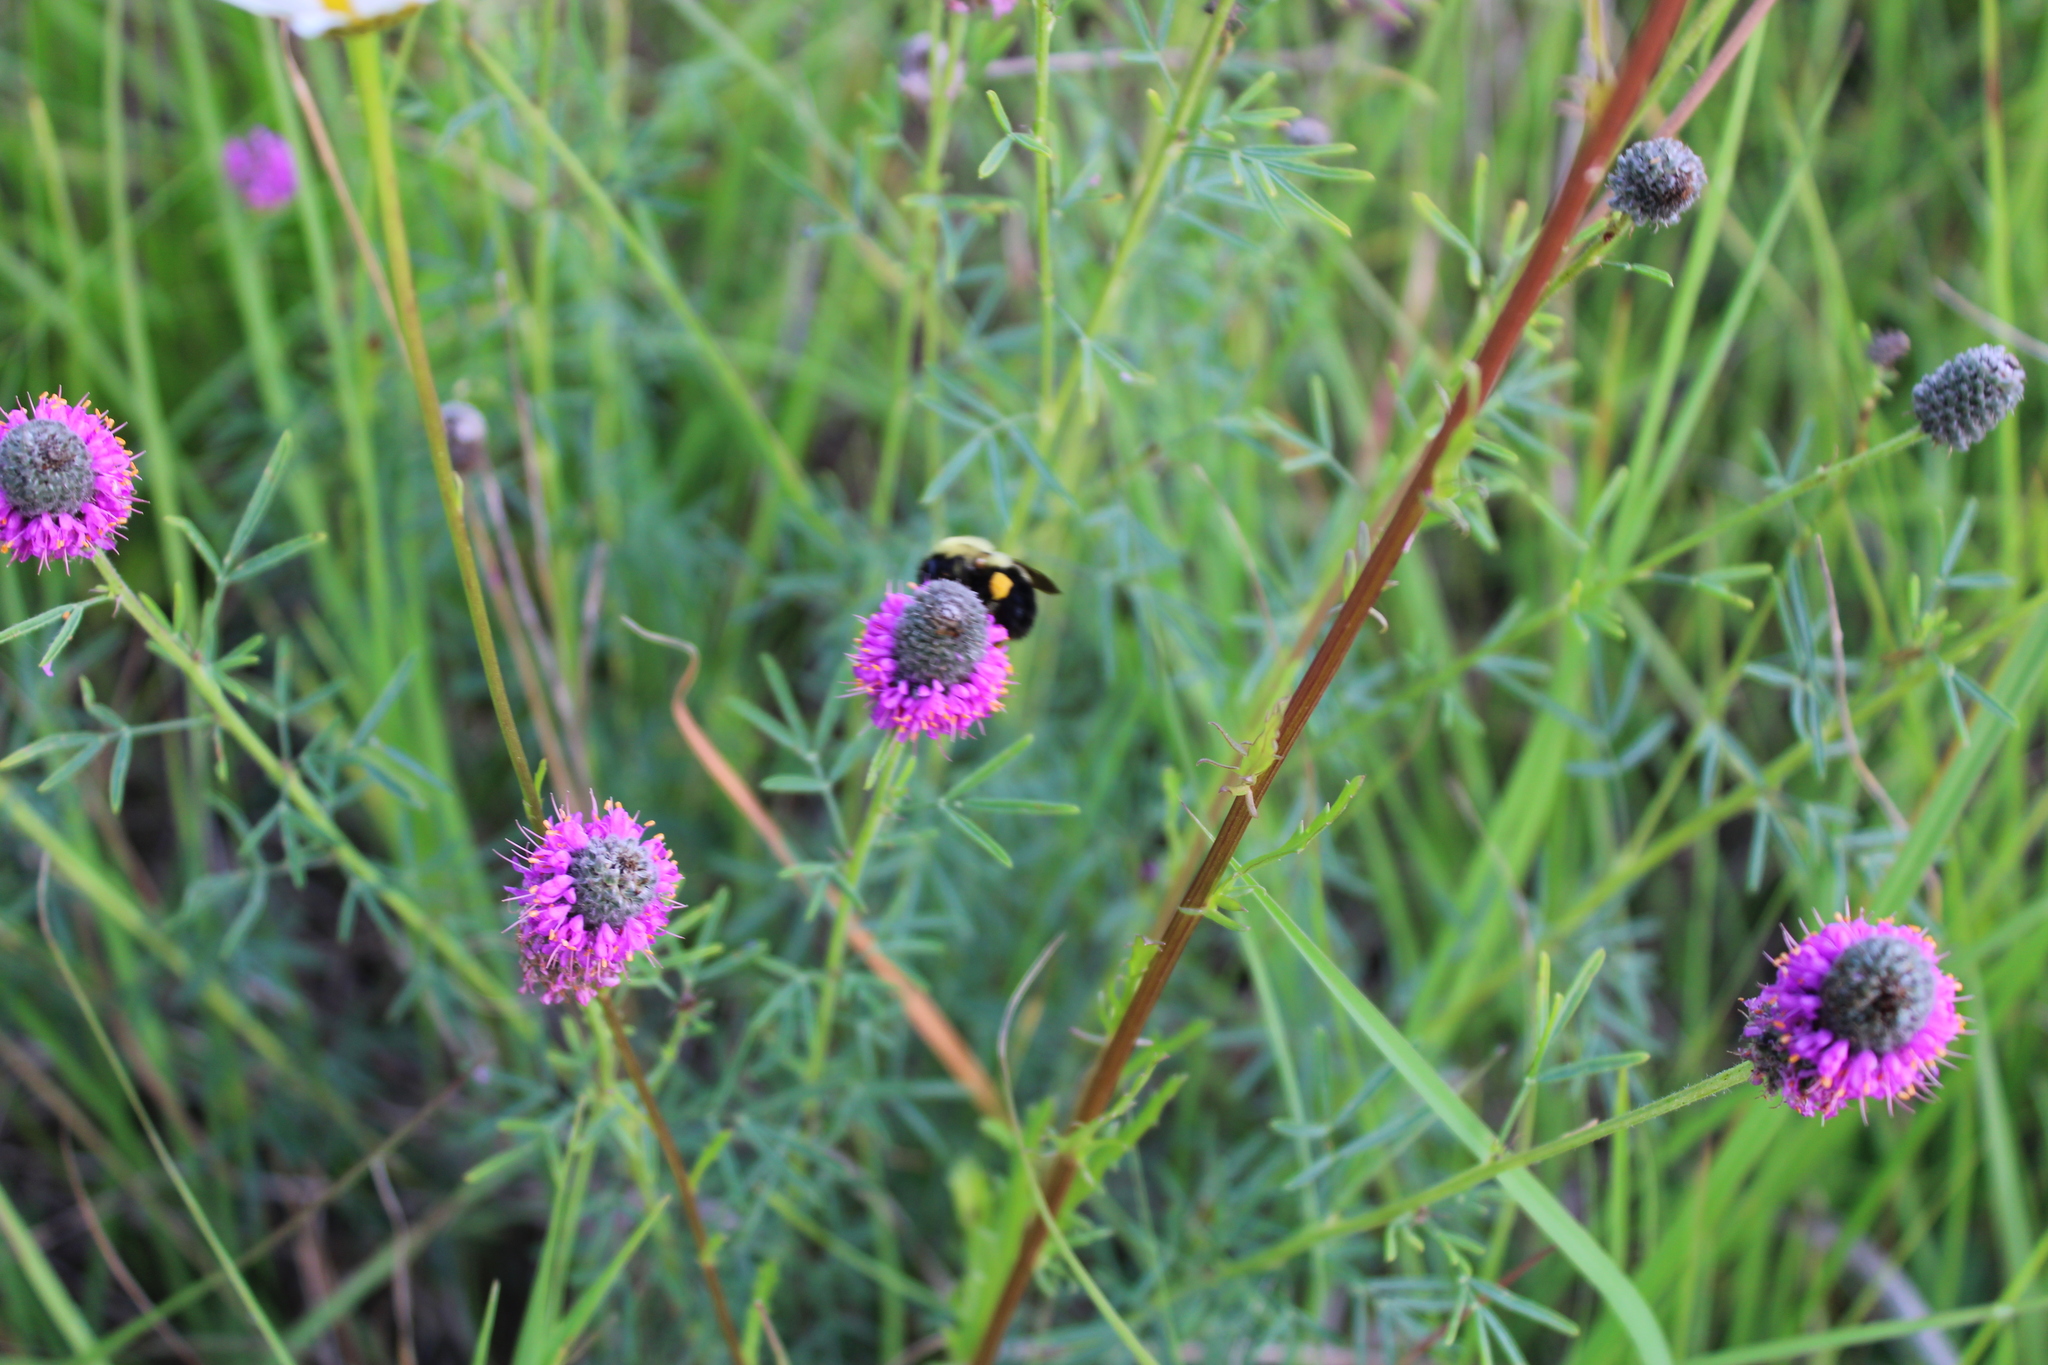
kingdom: Plantae
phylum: Tracheophyta
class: Magnoliopsida
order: Fabales
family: Fabaceae
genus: Dalea
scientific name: Dalea purpurea
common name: Purple prairie-clover
